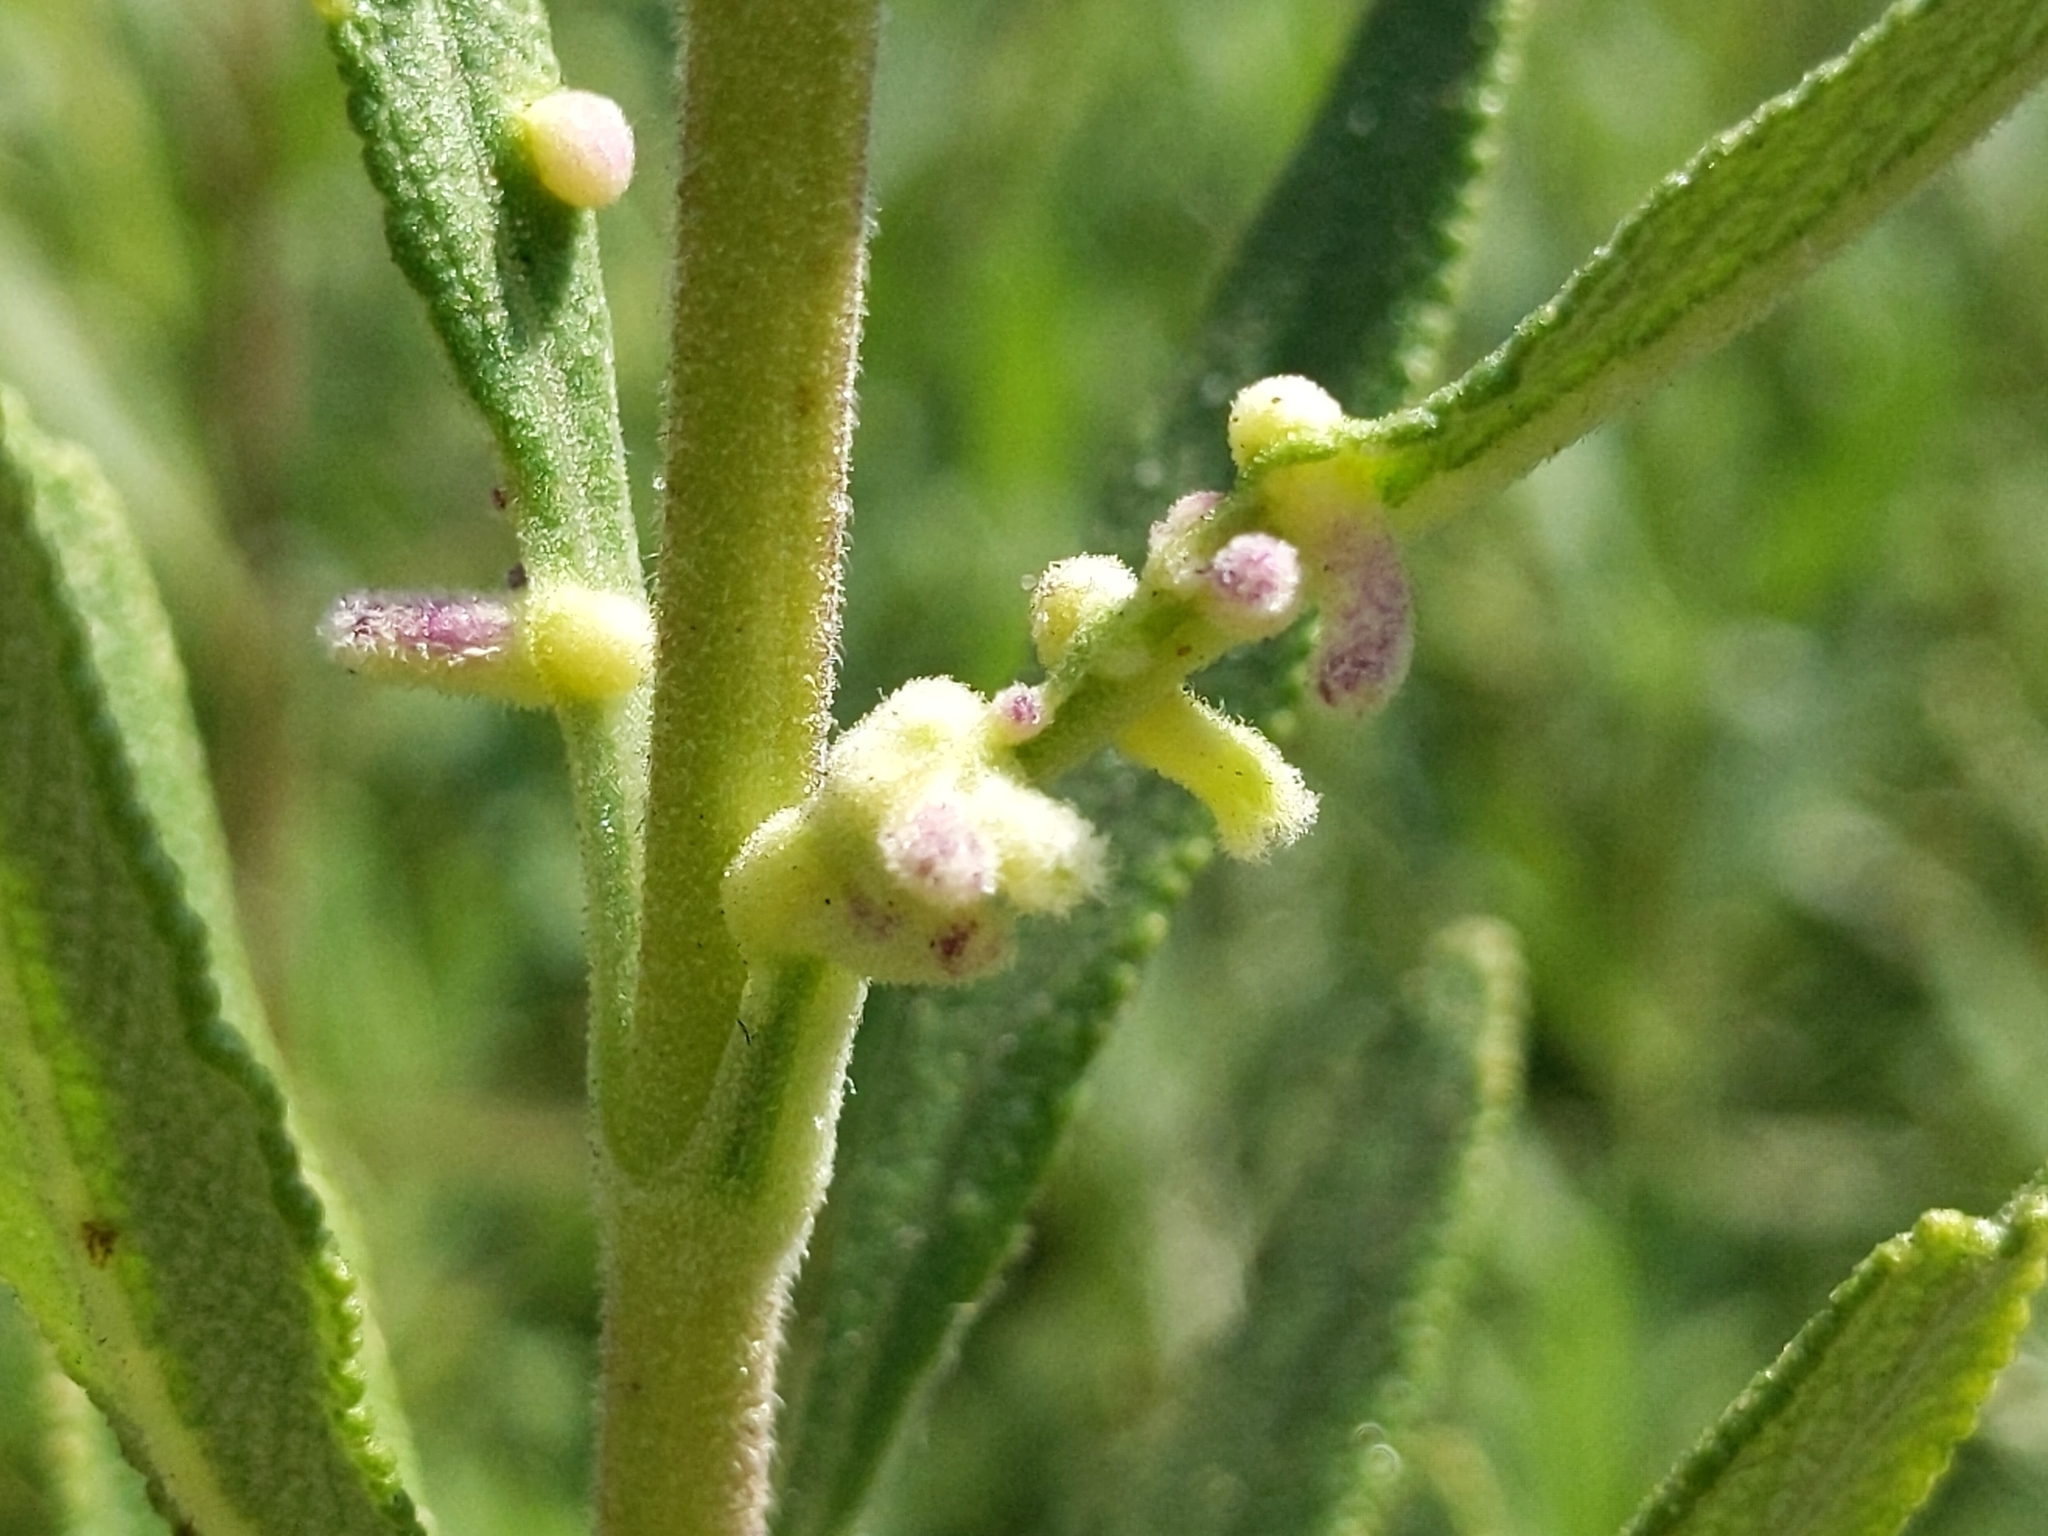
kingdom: Animalia
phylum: Arthropoda
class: Insecta
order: Diptera
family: Cecidomyiidae
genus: Rhopalomyia
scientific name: Rhopalomyia audibertiae
